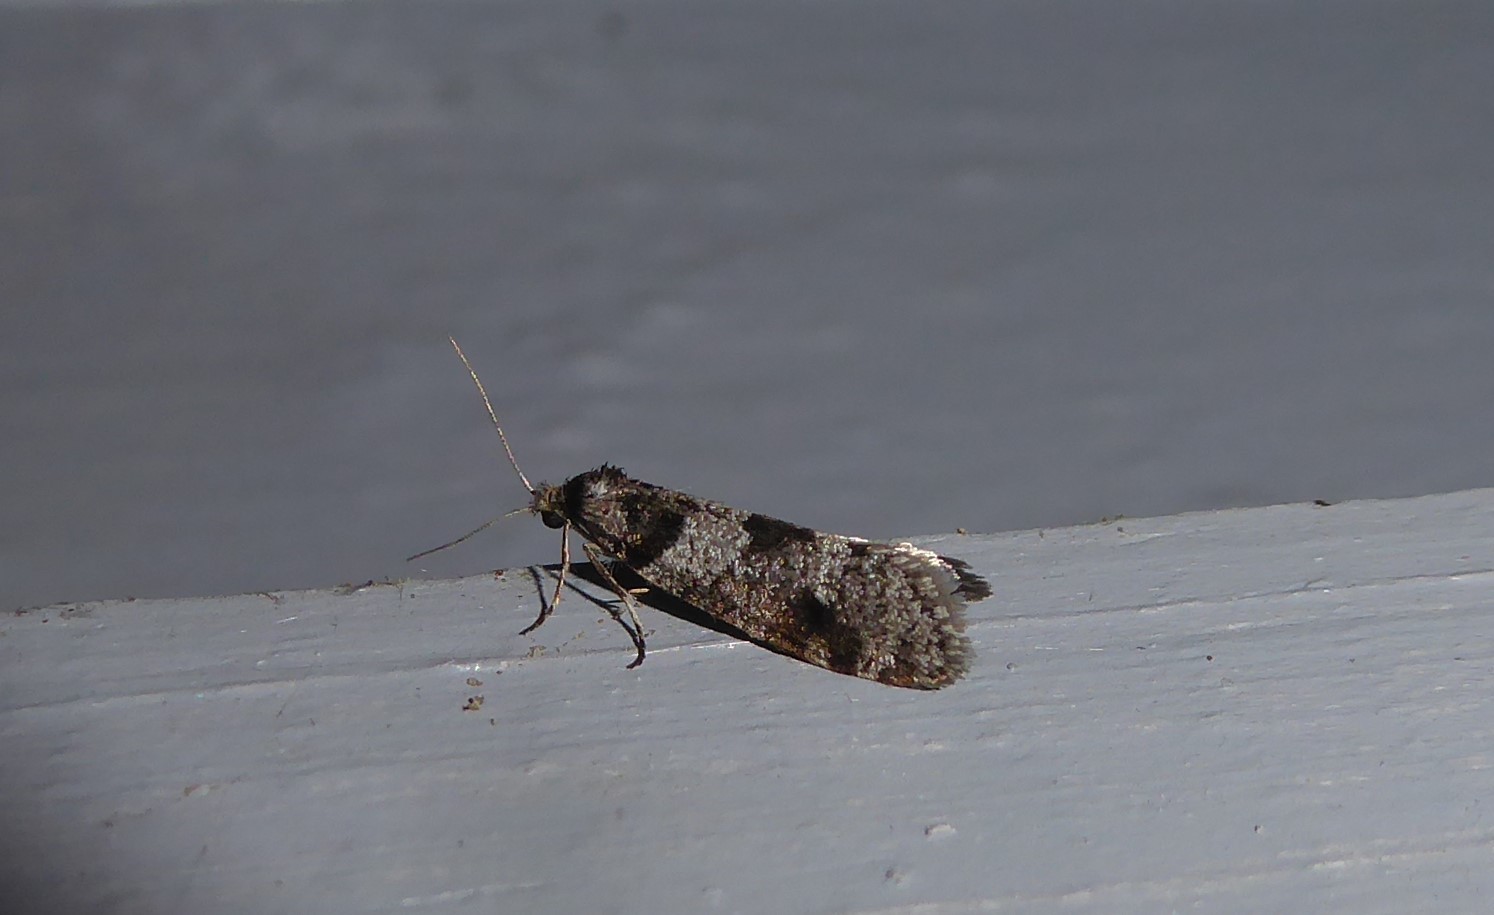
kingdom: Animalia
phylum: Arthropoda
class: Insecta
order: Lepidoptera
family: Psychidae
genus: Lepidoscia
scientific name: Lepidoscia heliochares
